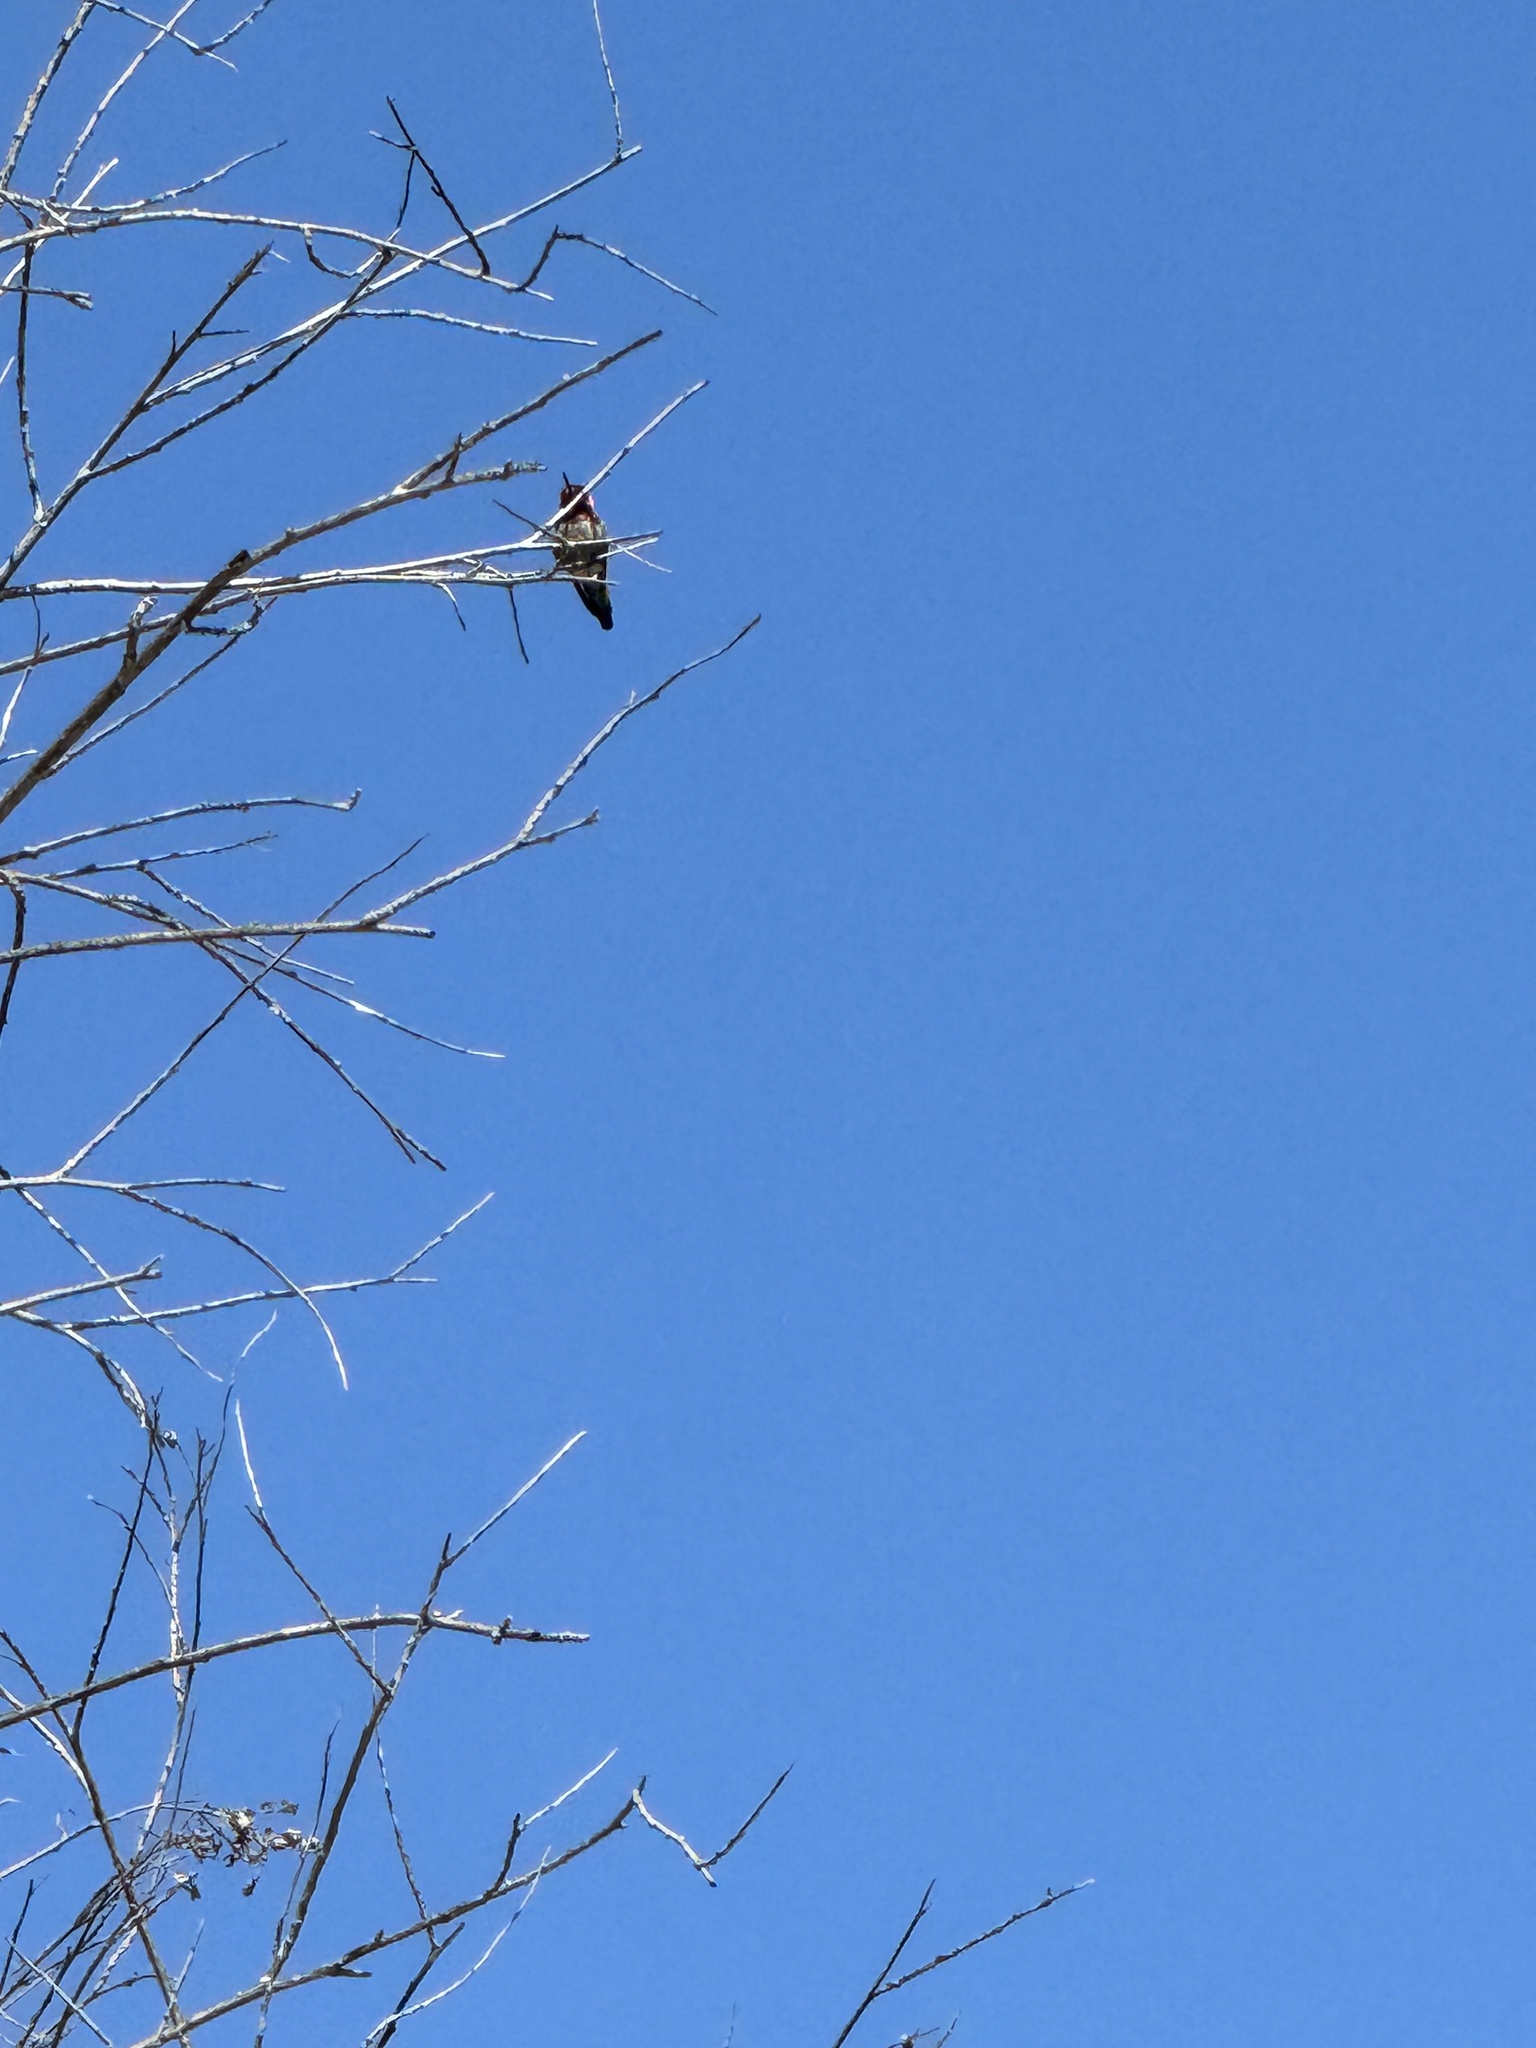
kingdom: Animalia
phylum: Chordata
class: Aves
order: Apodiformes
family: Trochilidae
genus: Calypte
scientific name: Calypte anna
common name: Anna's hummingbird
